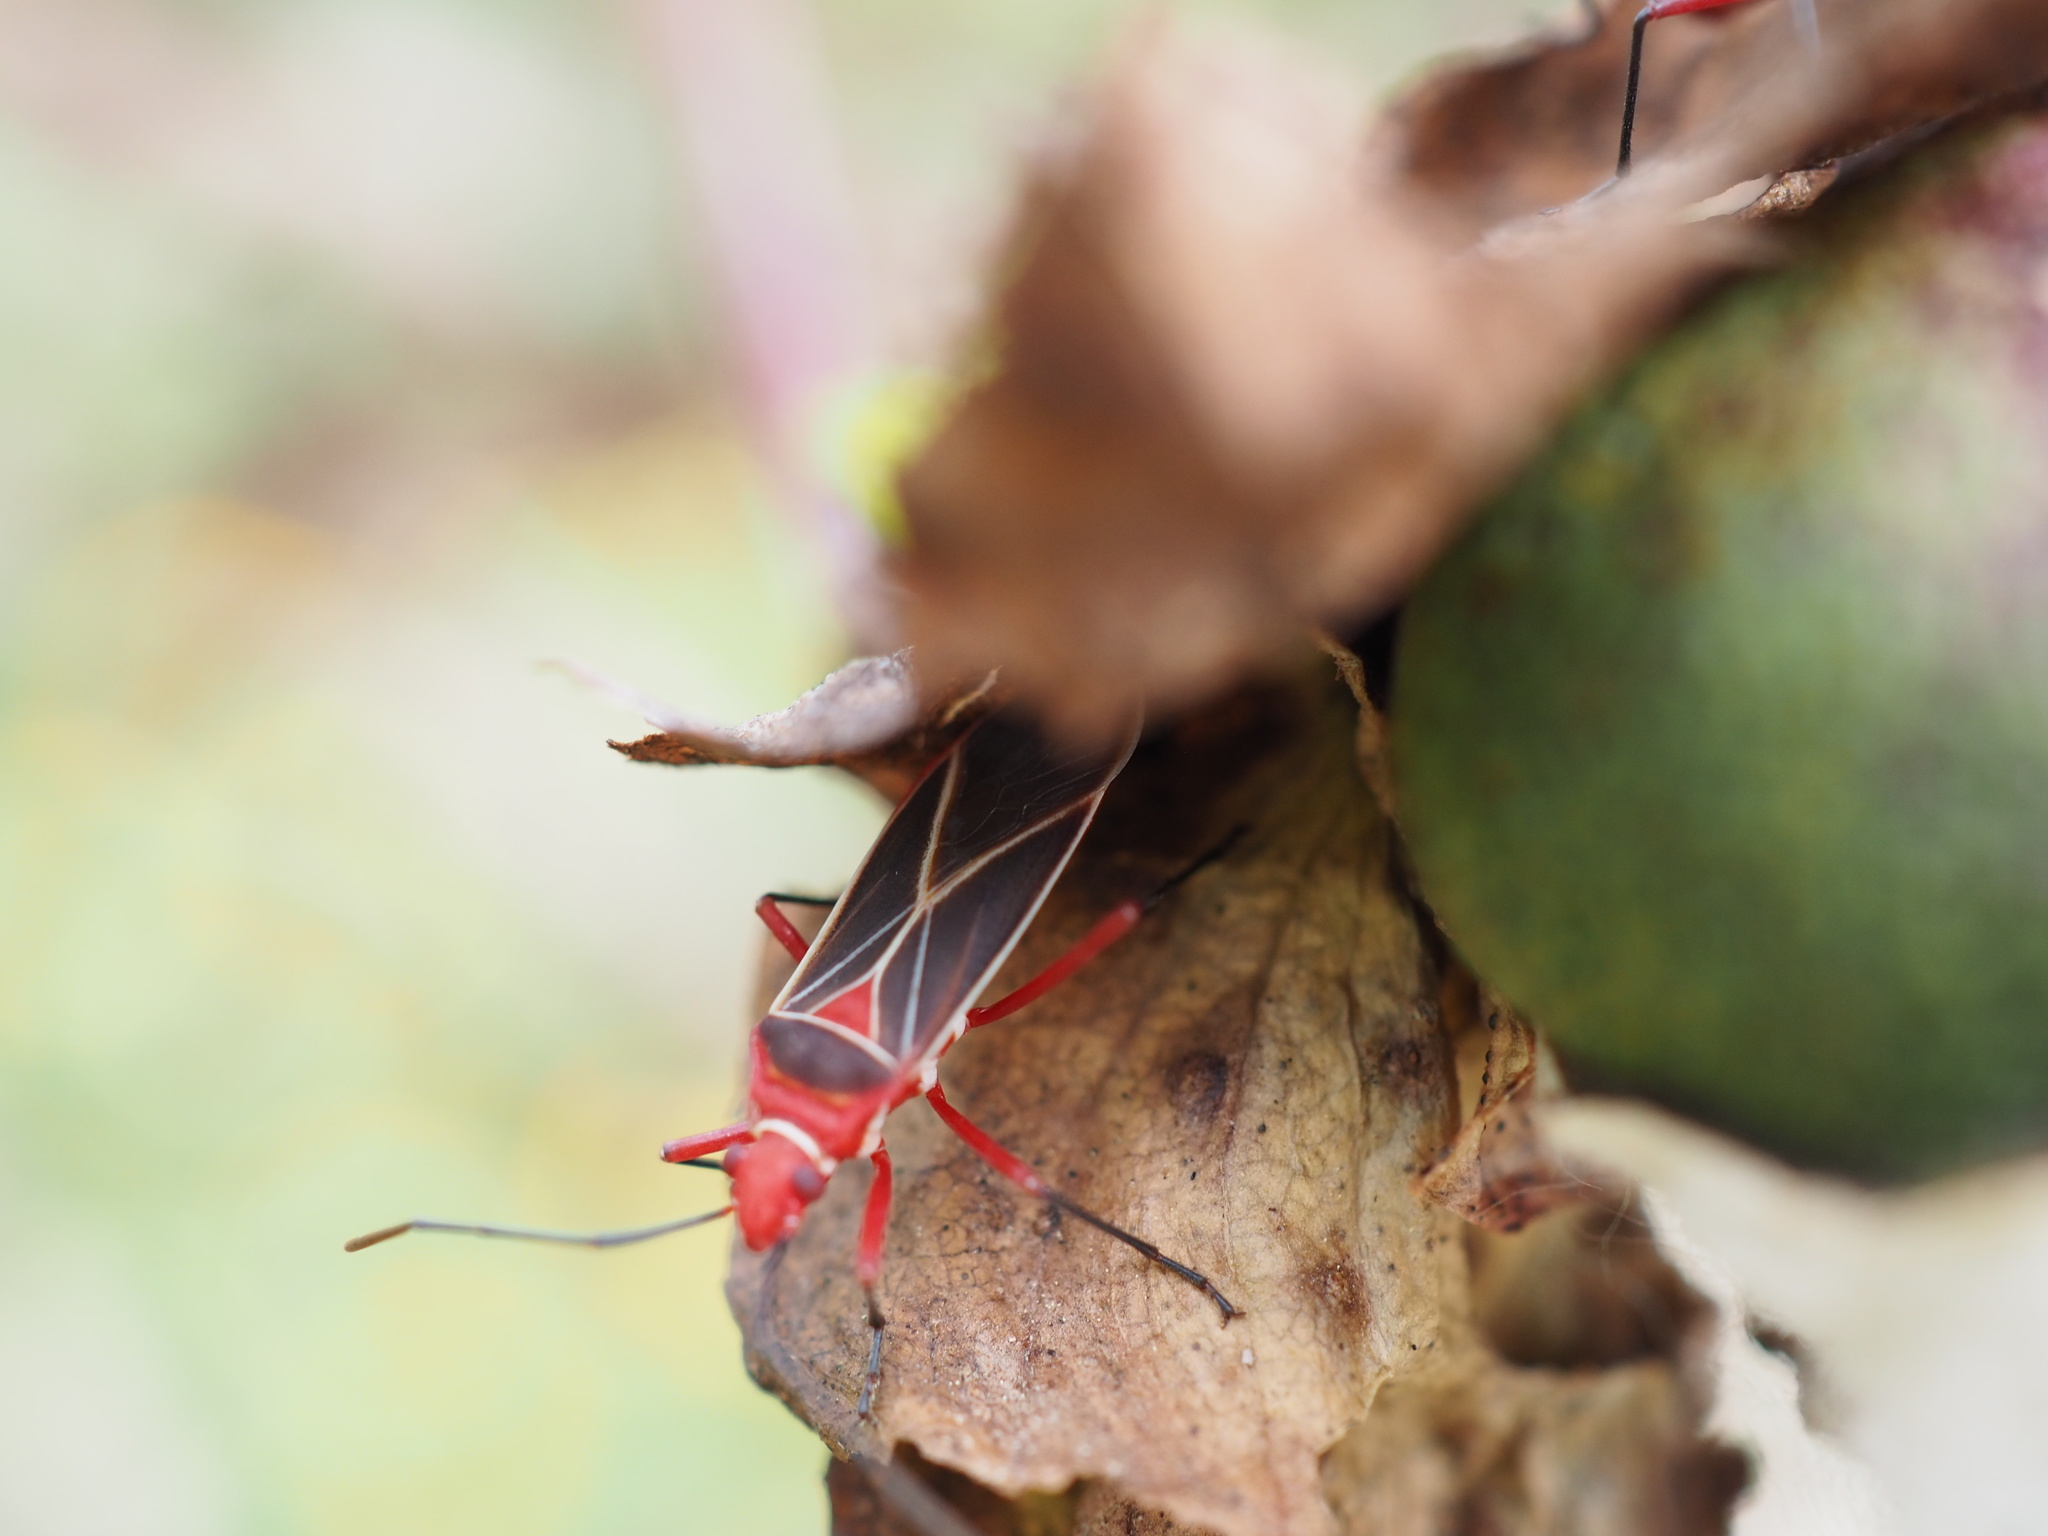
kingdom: Animalia
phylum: Arthropoda
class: Insecta
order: Hemiptera
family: Pyrrhocoridae
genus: Dysdercus
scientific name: Dysdercus suturellus
